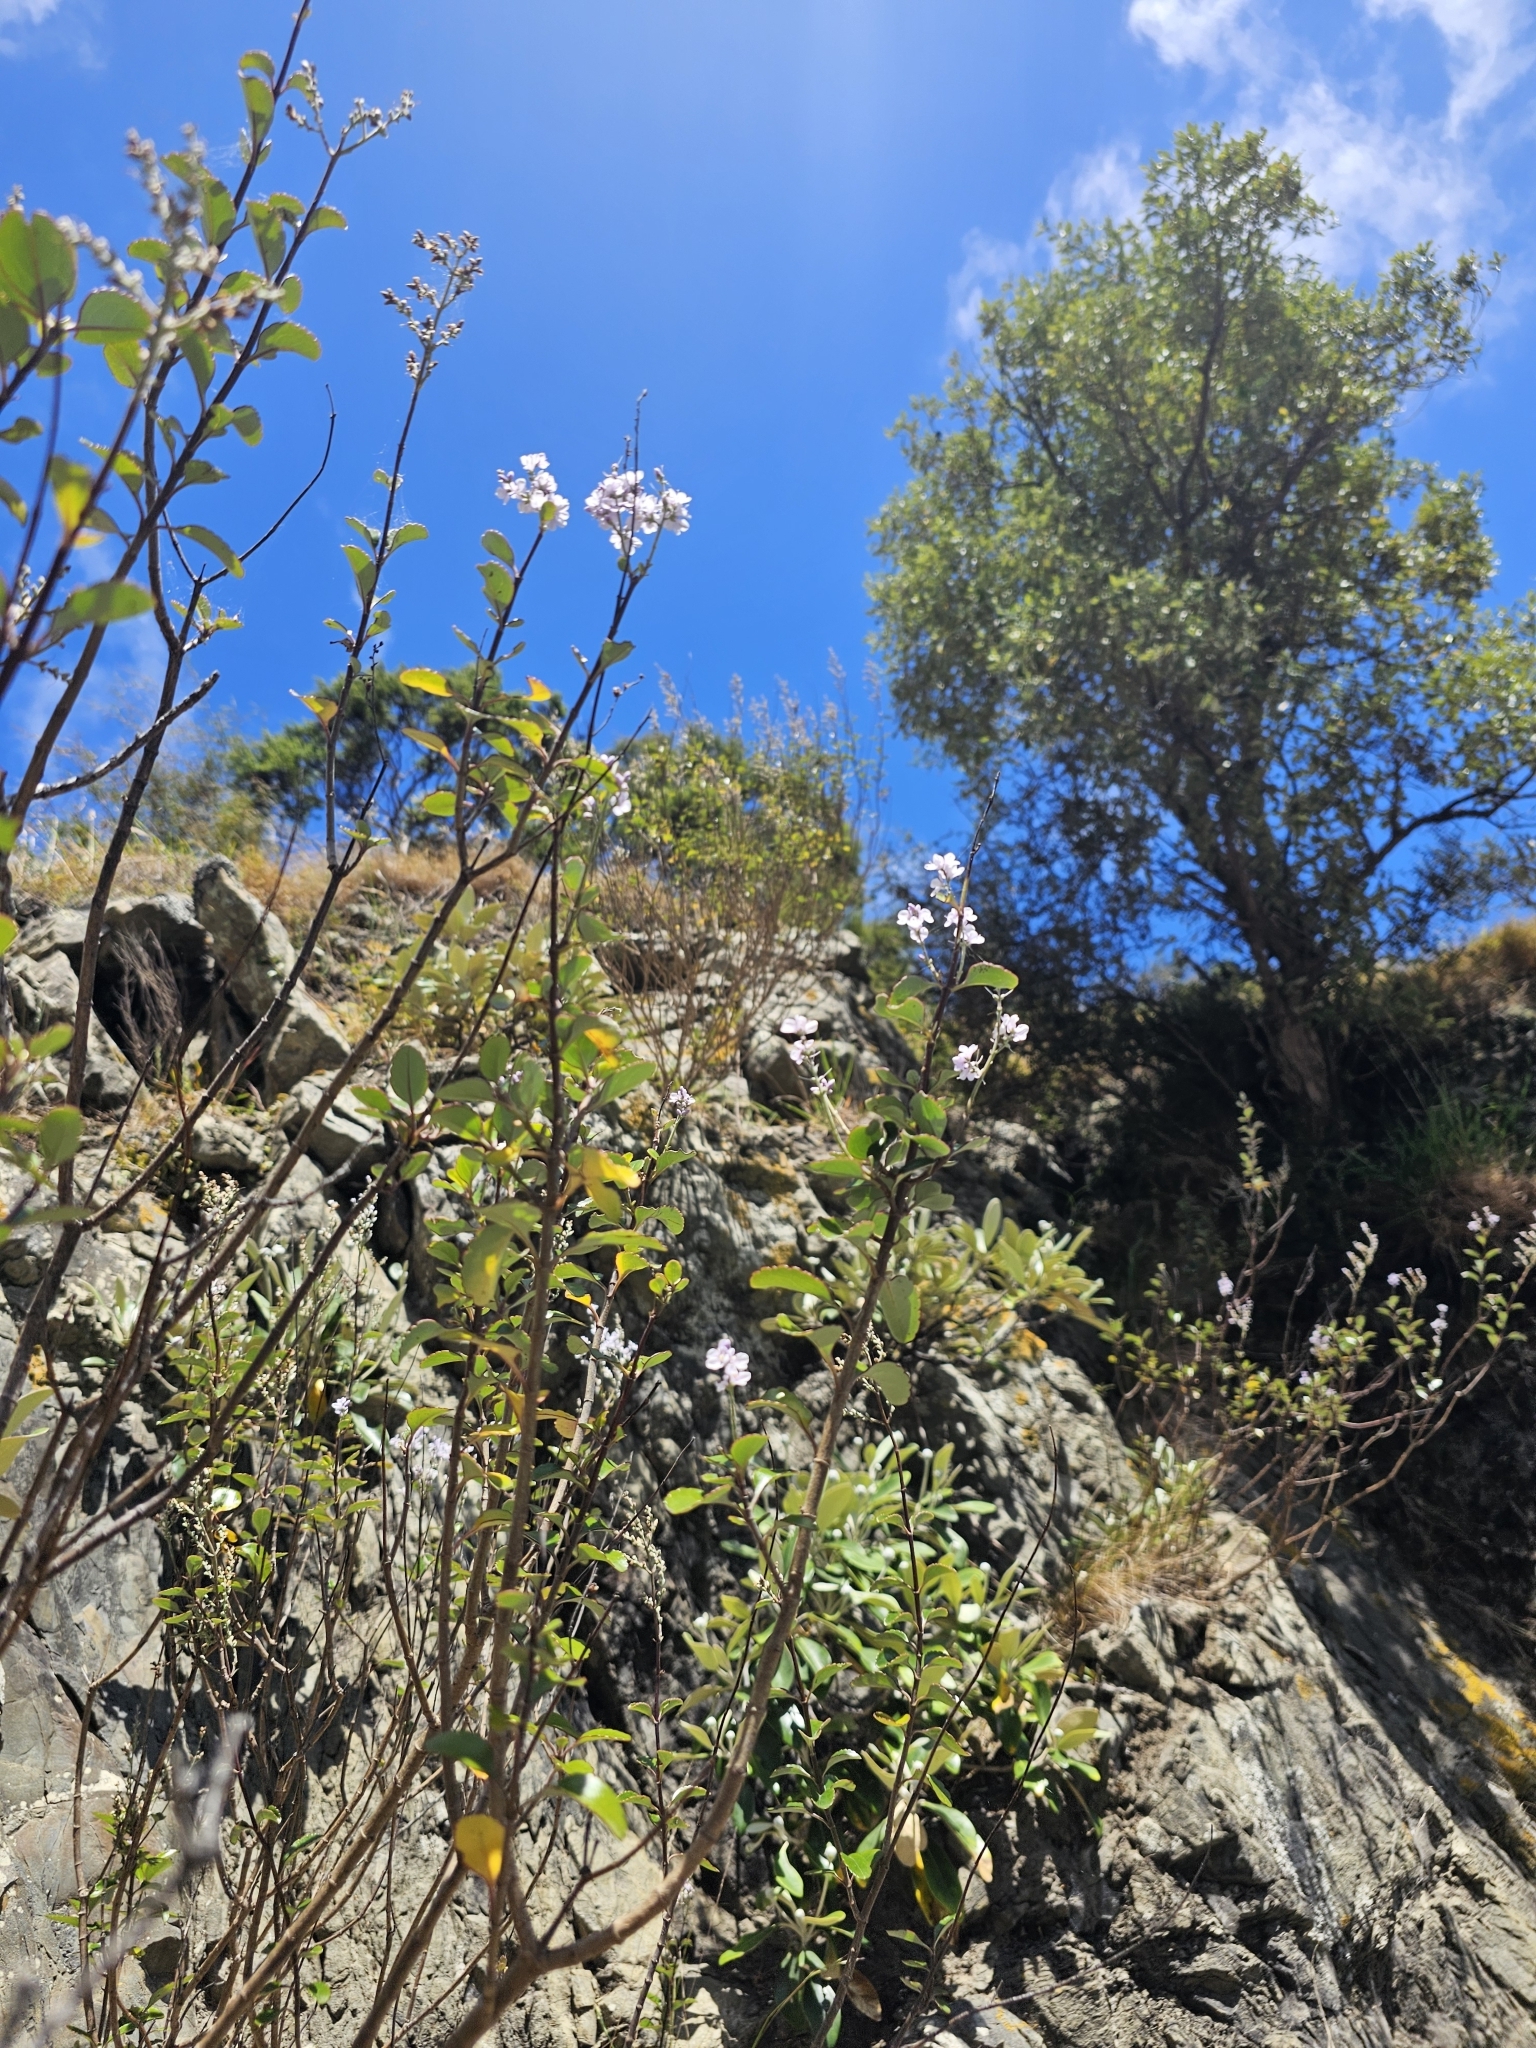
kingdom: Plantae
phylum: Tracheophyta
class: Magnoliopsida
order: Lamiales
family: Plantaginaceae
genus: Veronica
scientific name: Veronica hulkeana
